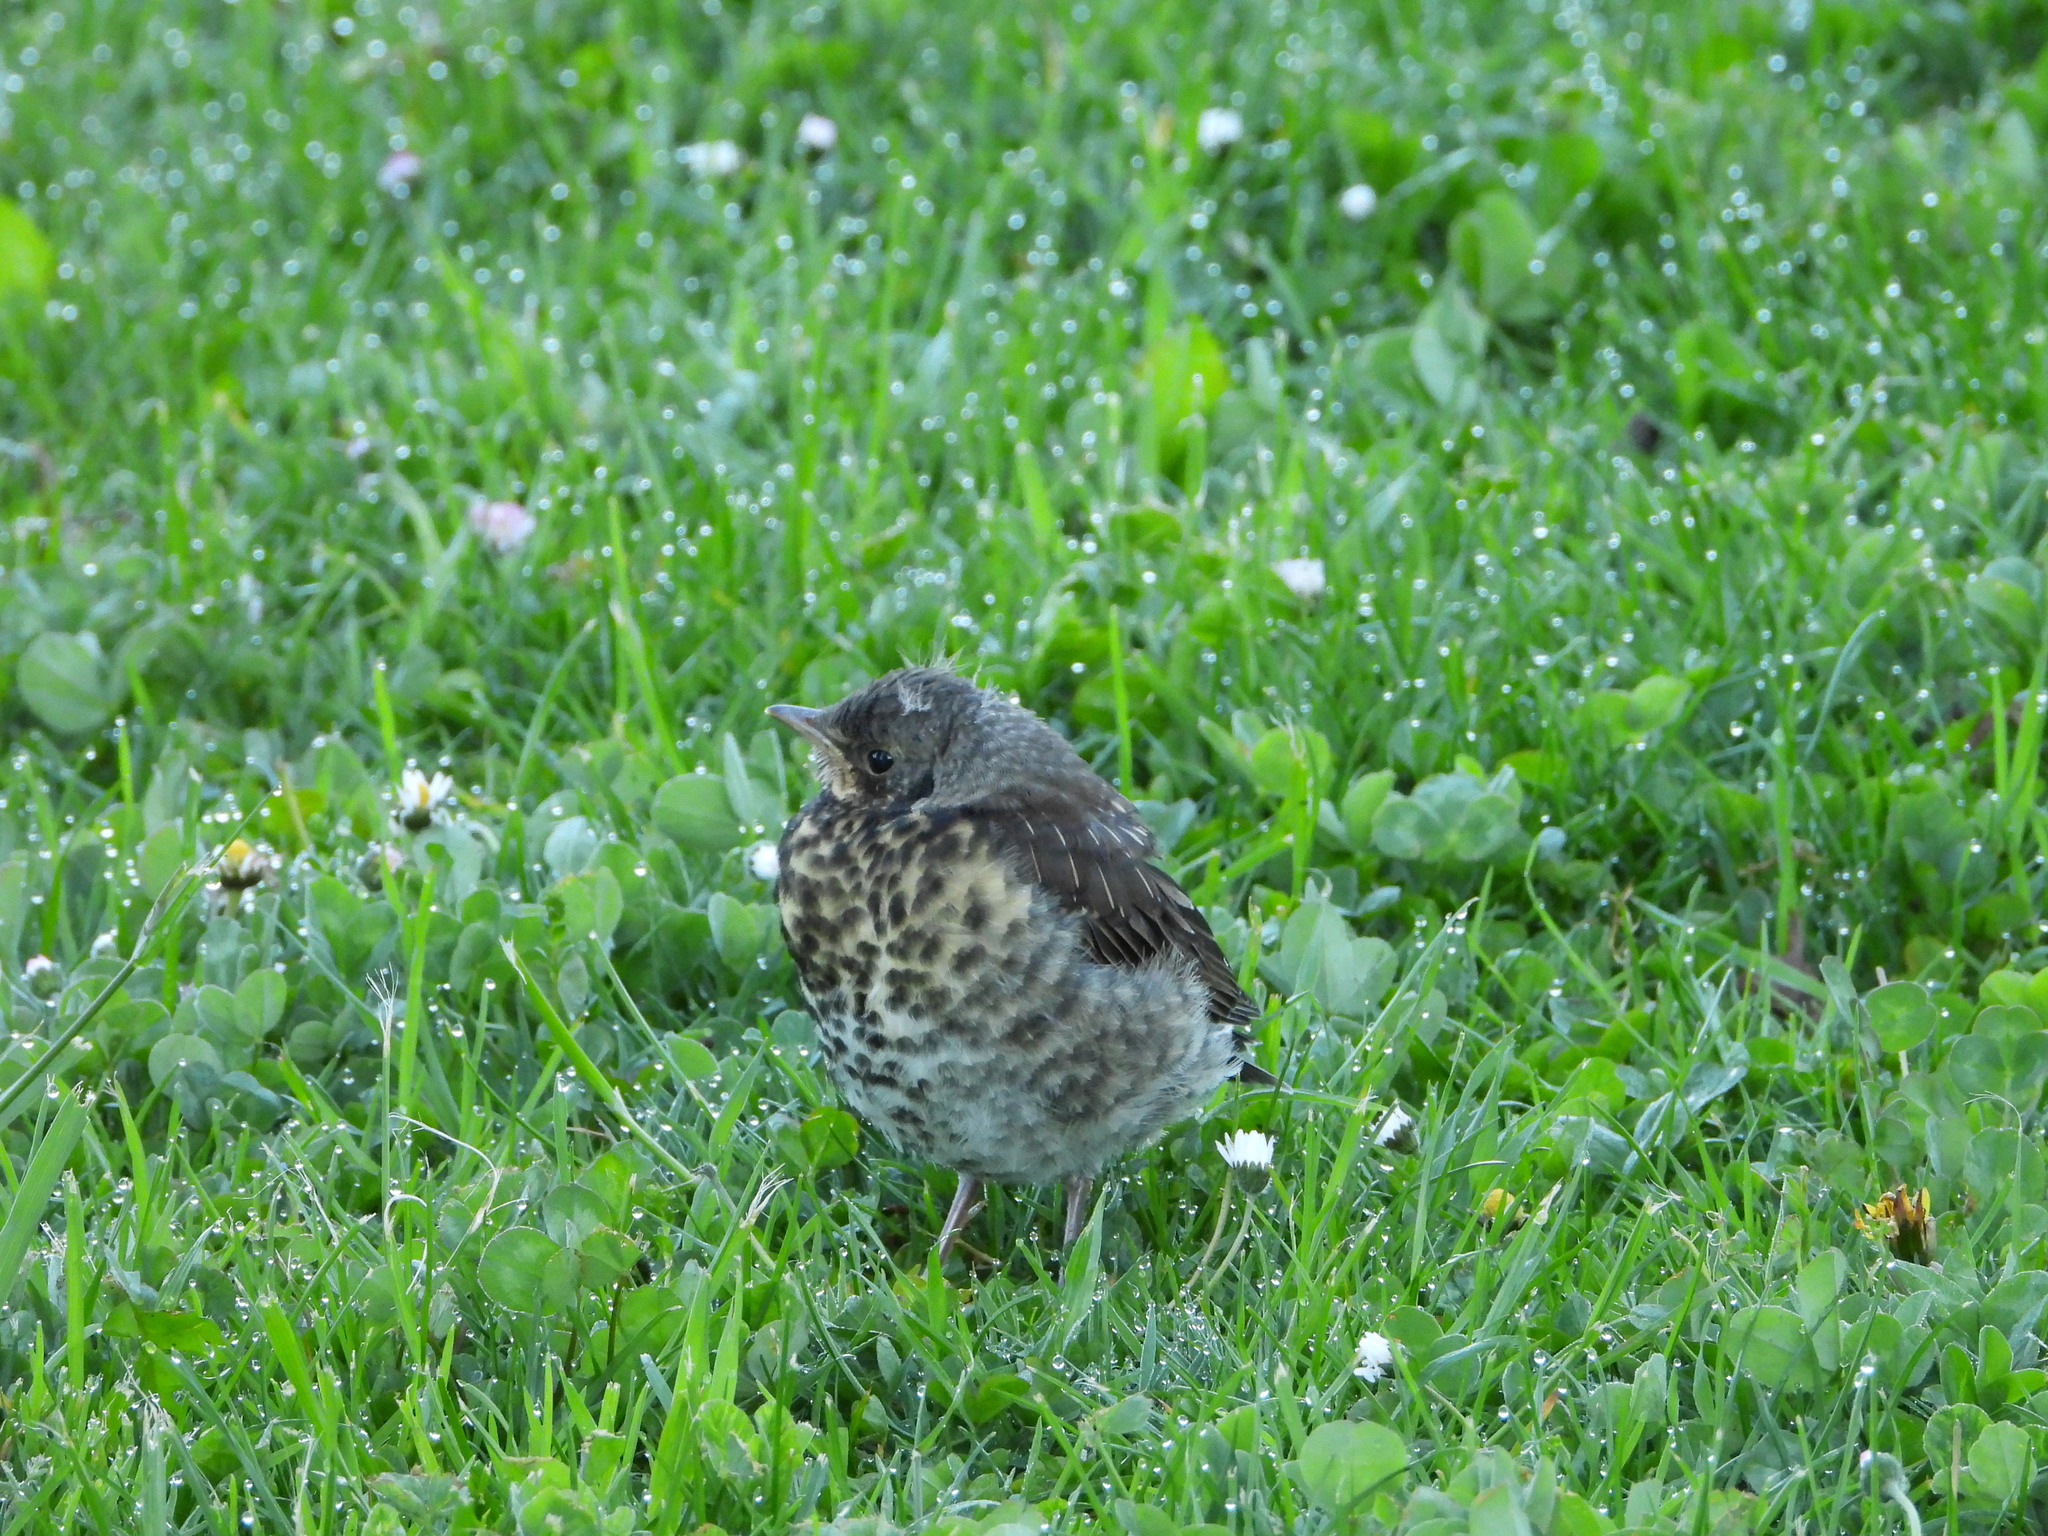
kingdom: Animalia
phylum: Chordata
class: Aves
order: Passeriformes
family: Turdidae
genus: Turdus
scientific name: Turdus pilaris
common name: Fieldfare
